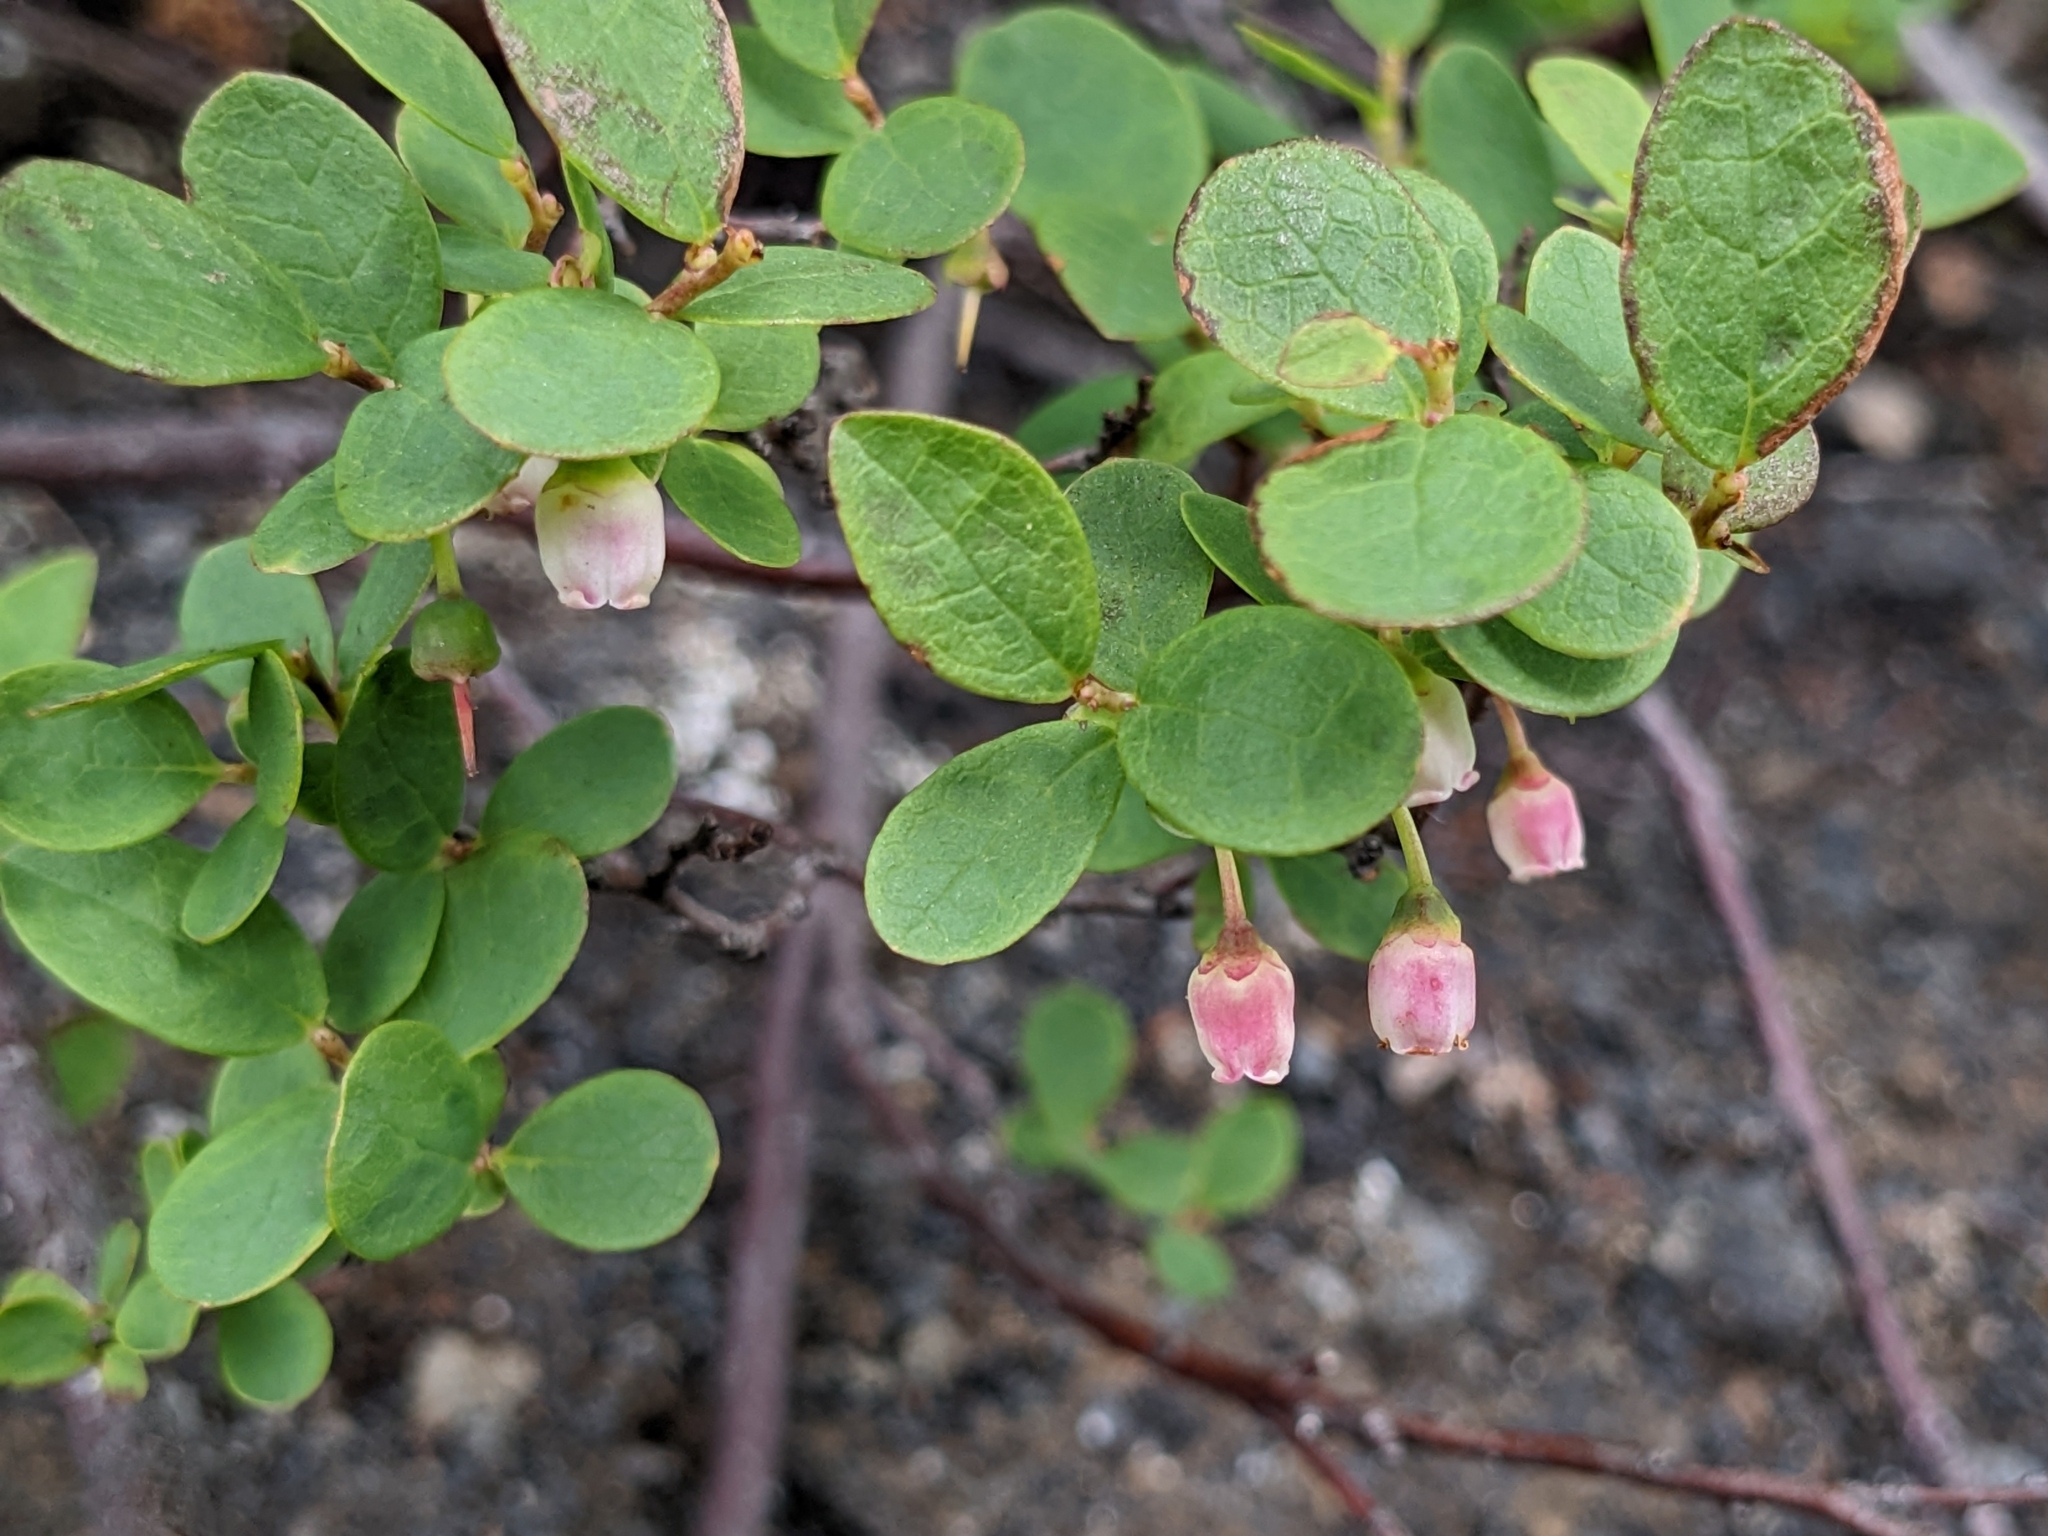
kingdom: Plantae
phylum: Tracheophyta
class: Magnoliopsida
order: Ericales
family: Ericaceae
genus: Vaccinium
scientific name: Vaccinium uliginosum
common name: Bog bilberry
